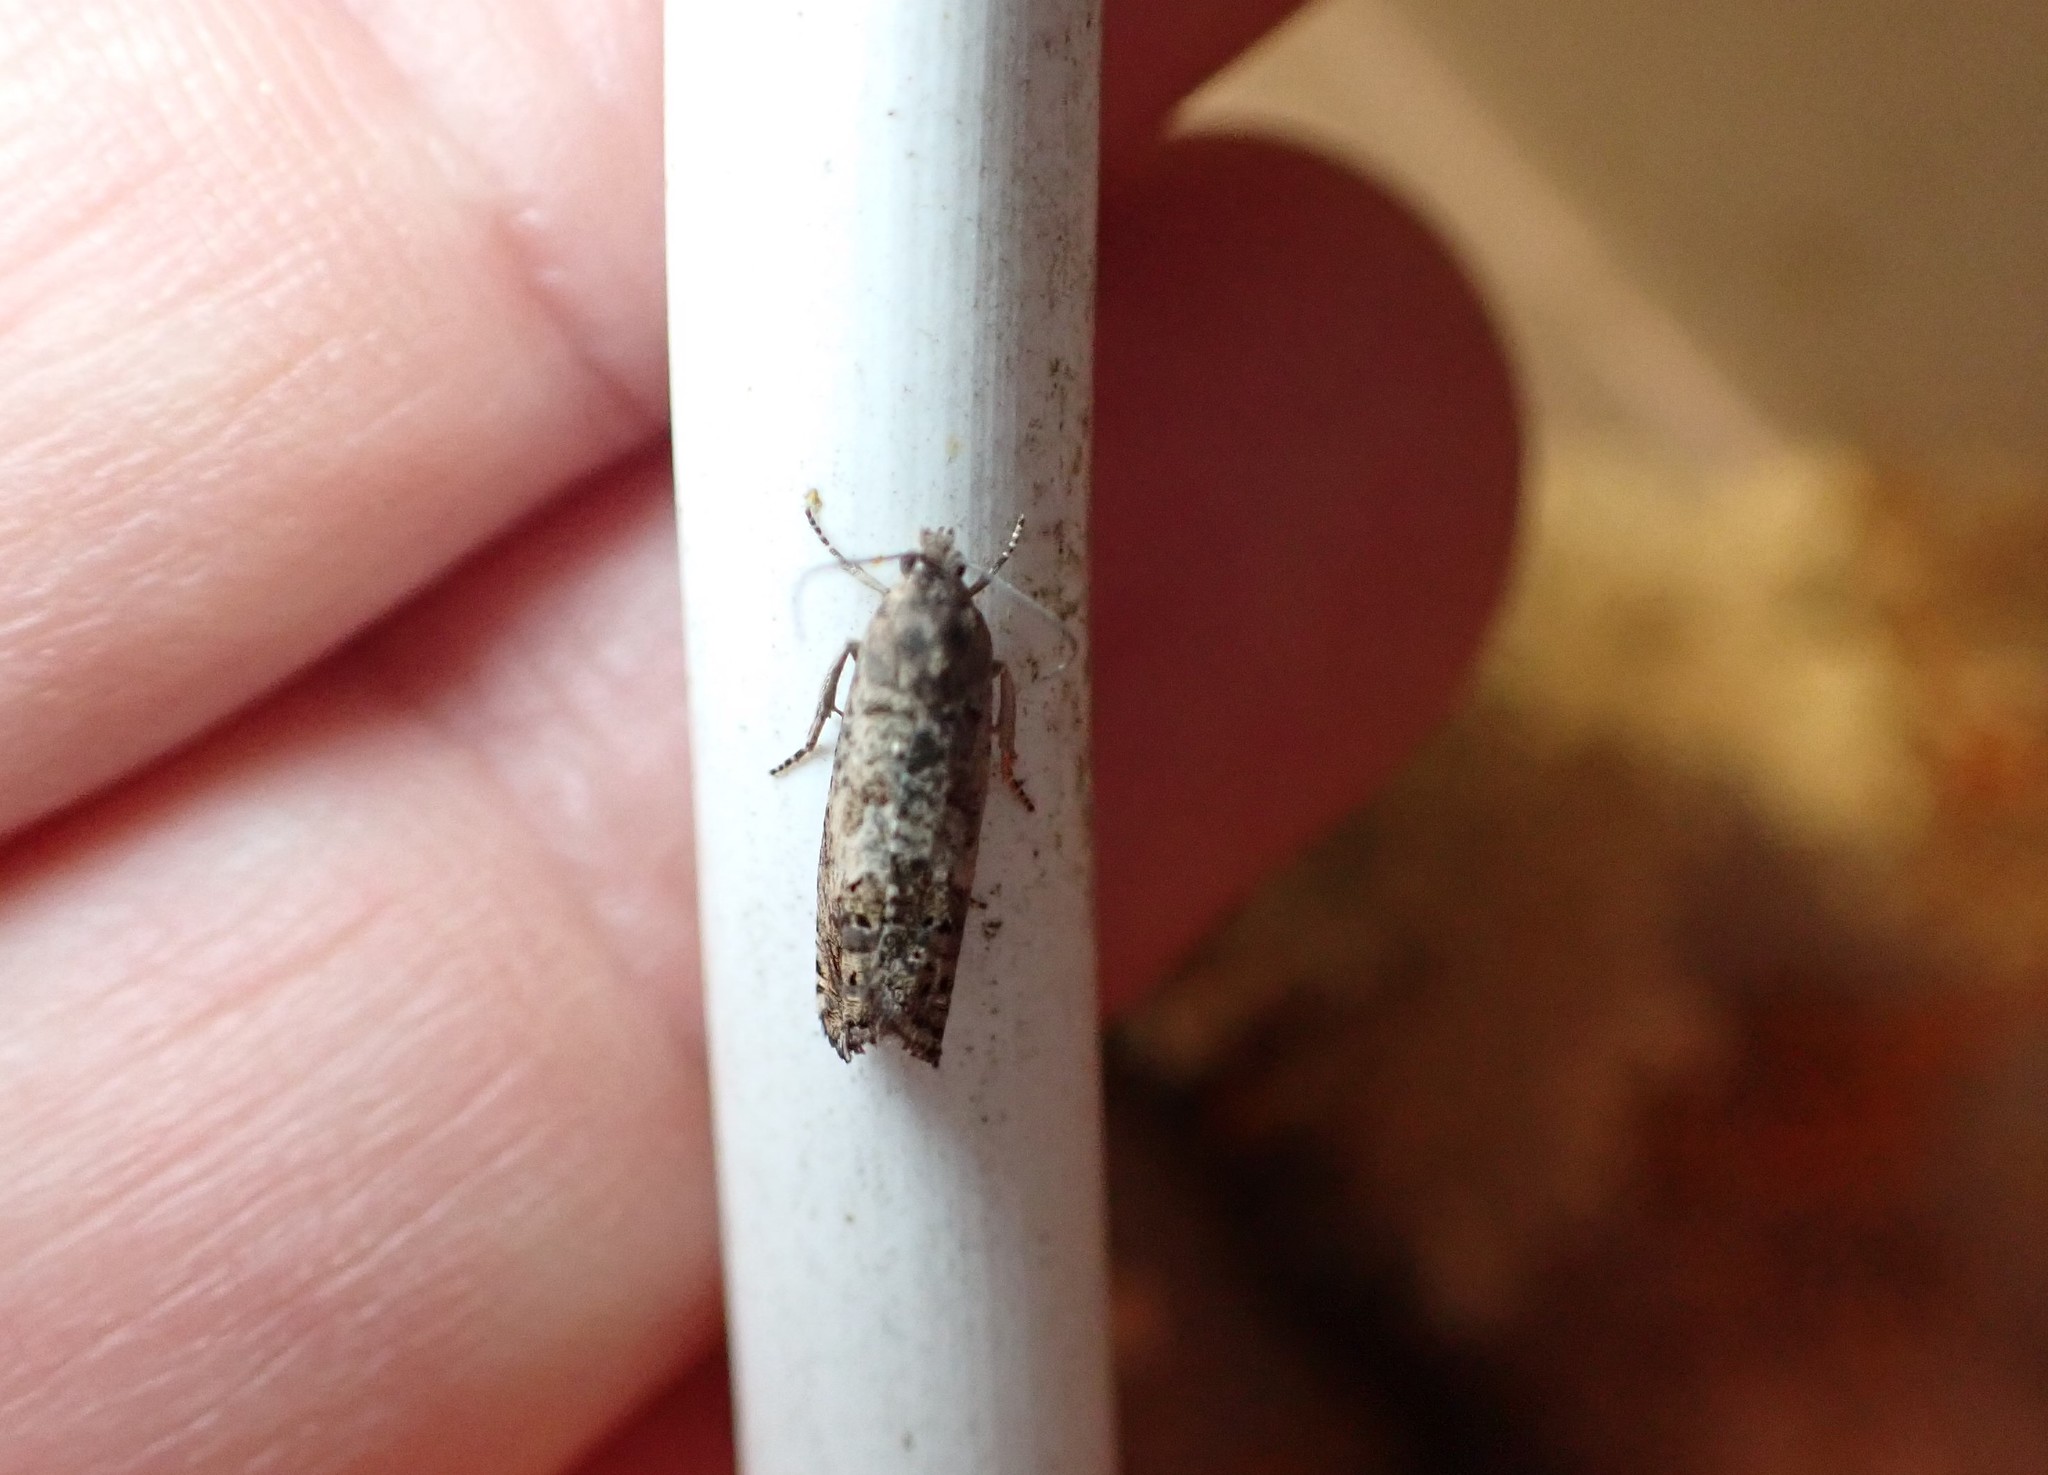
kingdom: Animalia
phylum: Arthropoda
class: Insecta
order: Lepidoptera
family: Tortricidae
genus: Cydia
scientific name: Cydia succedana
